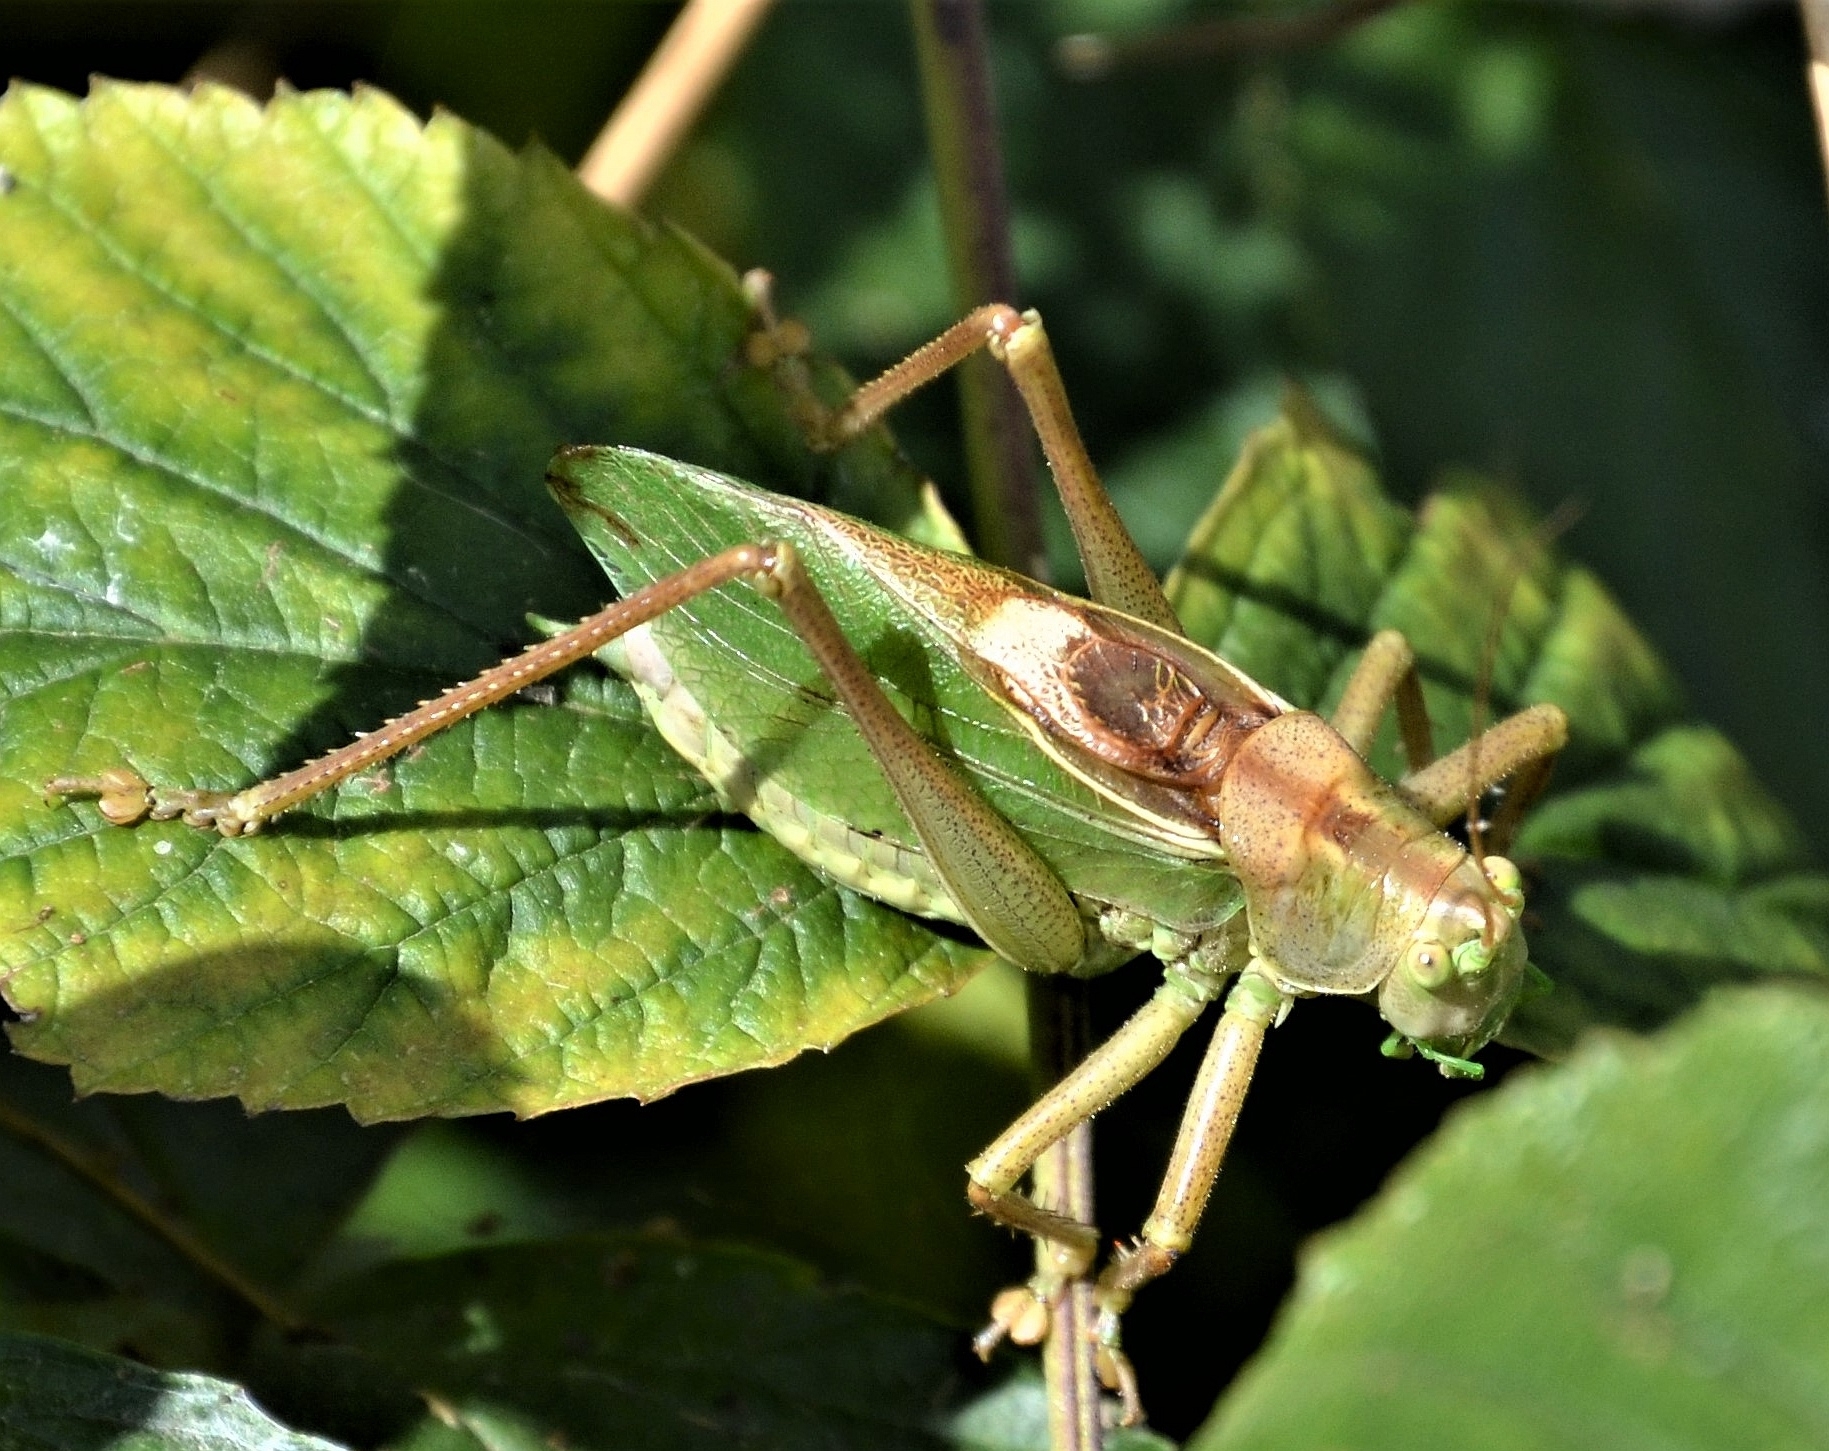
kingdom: Animalia
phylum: Arthropoda
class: Insecta
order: Orthoptera
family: Tettigoniidae
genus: Tettigonia
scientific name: Tettigonia cantans
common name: Upland green bush-cricket
